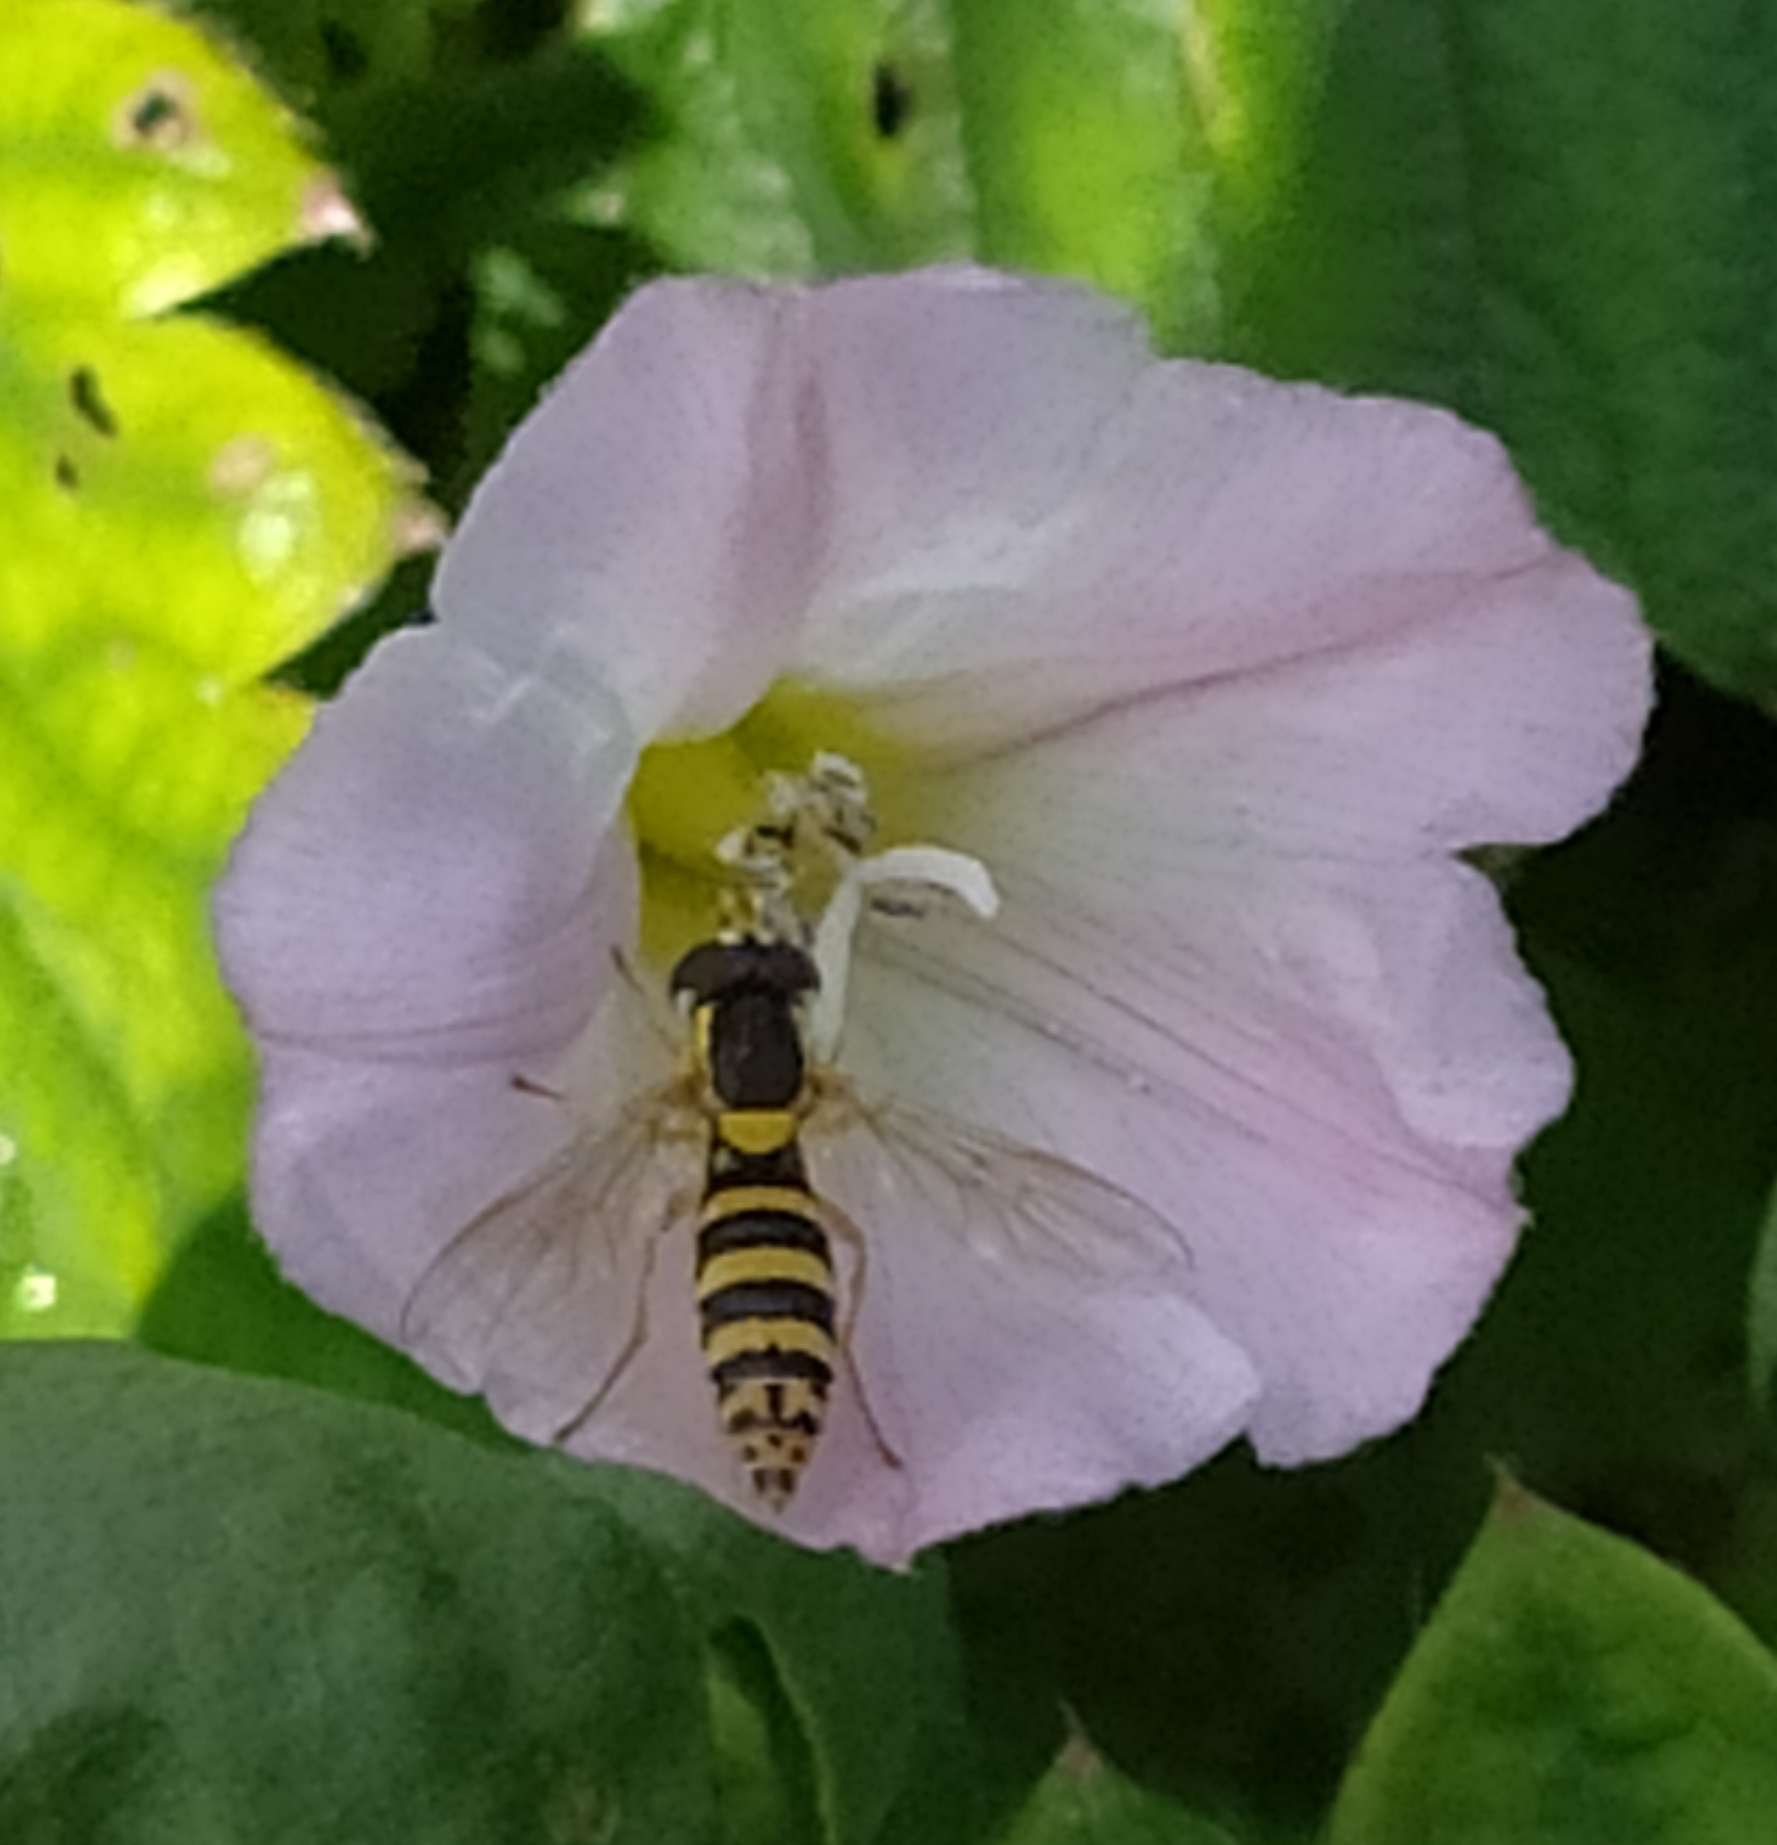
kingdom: Animalia
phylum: Arthropoda
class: Insecta
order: Diptera
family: Syrphidae
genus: Sphaerophoria
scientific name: Sphaerophoria
